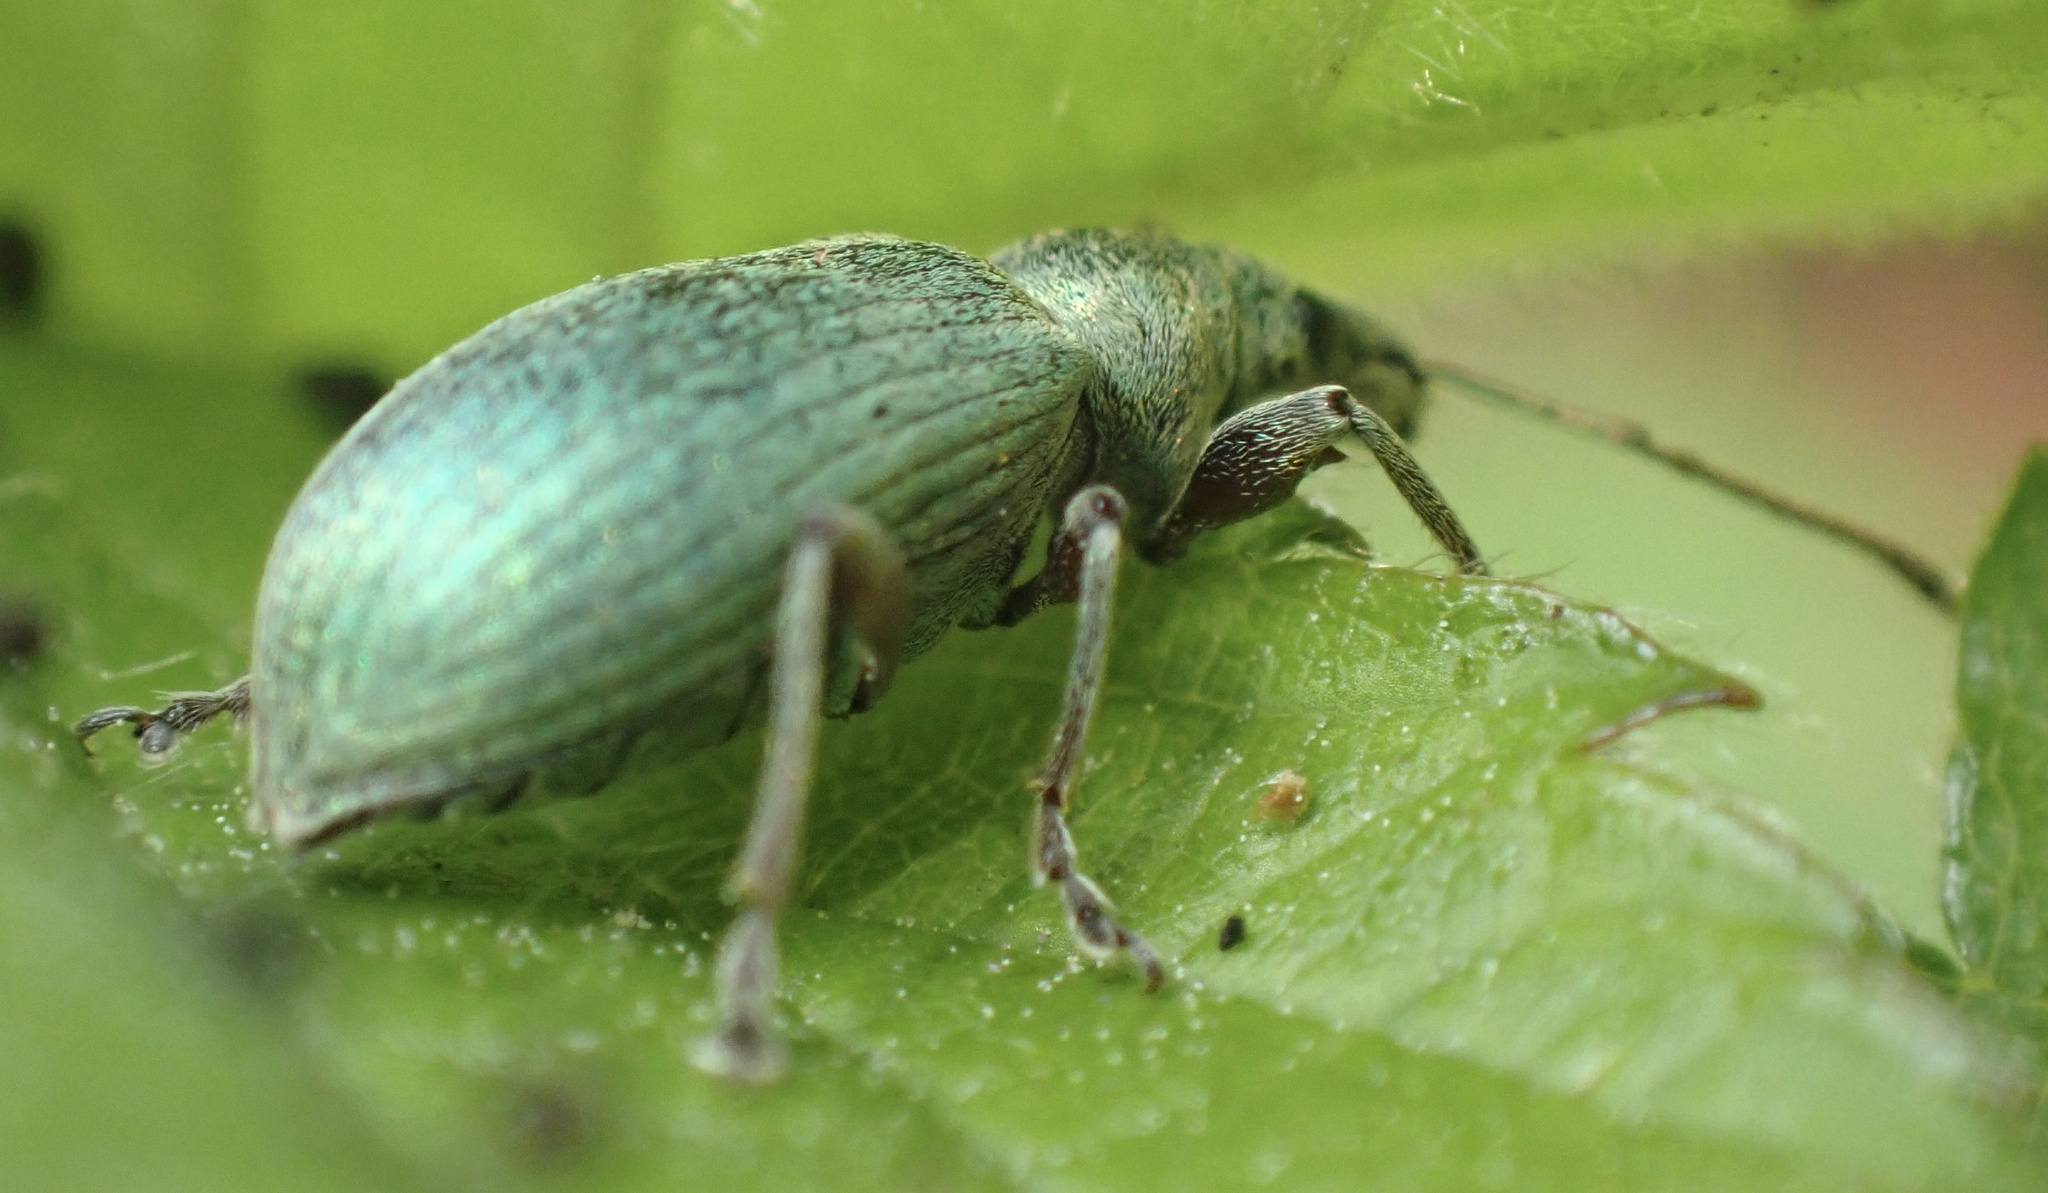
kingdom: Animalia
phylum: Arthropoda
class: Insecta
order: Coleoptera
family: Curculionidae
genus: Phyllobius
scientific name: Phyllobius pomaceus
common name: Green nettle weevil
